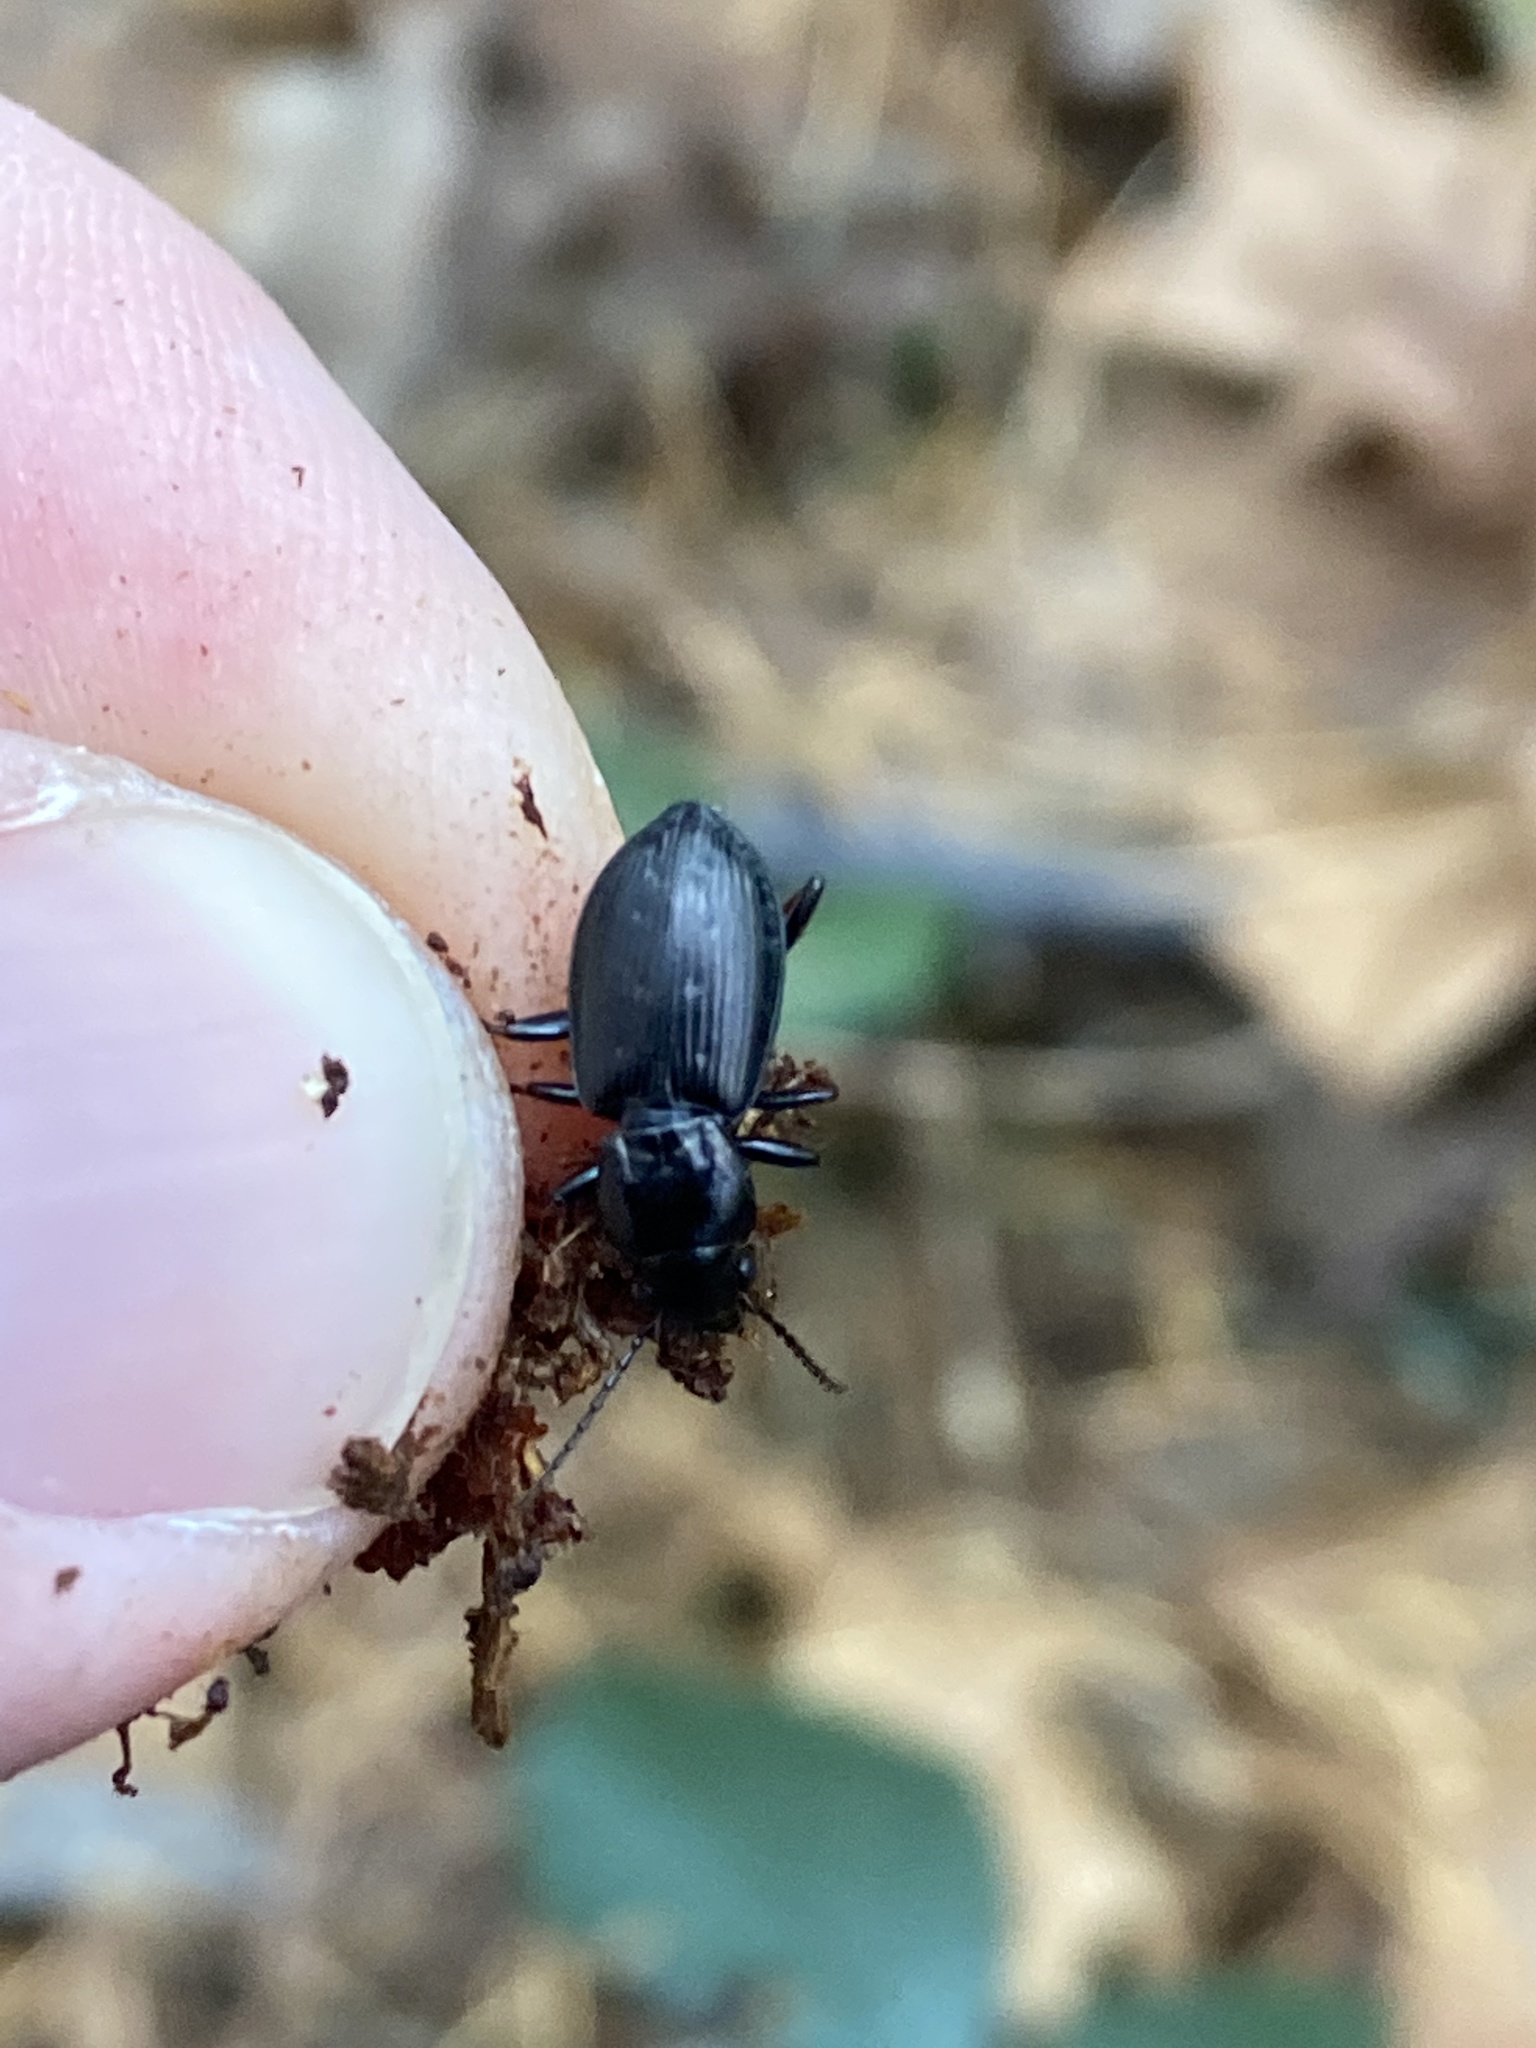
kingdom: Animalia
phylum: Arthropoda
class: Insecta
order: Coleoptera
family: Carabidae
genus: Pterostichus
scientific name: Pterostichus oblongopunctatus
